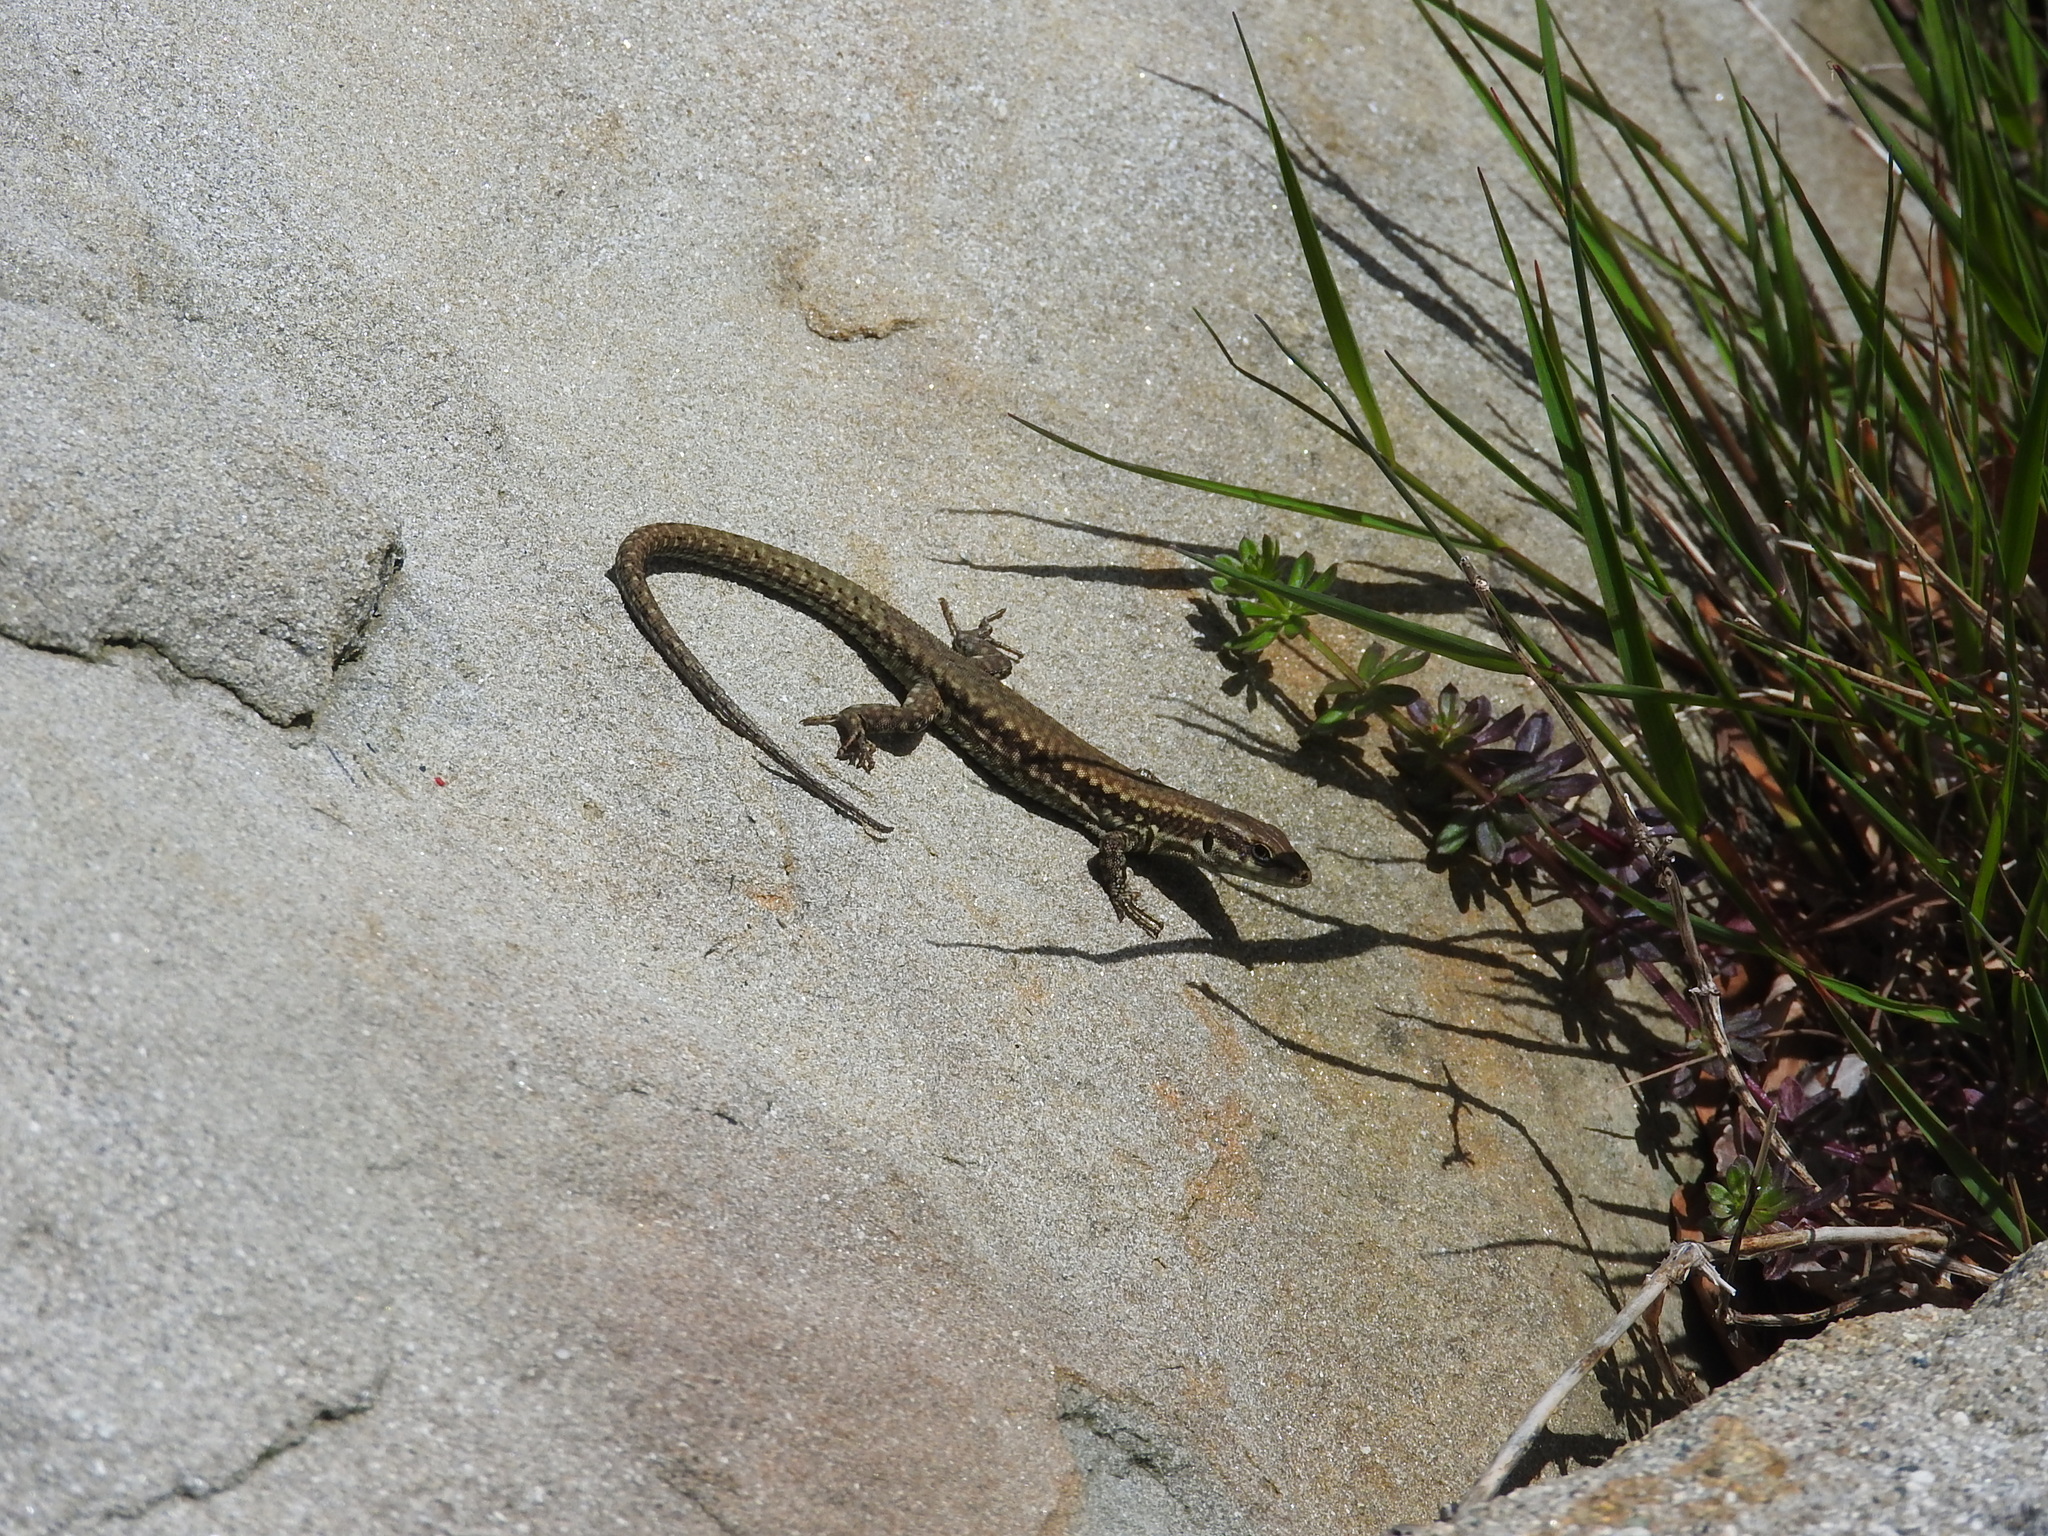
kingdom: Animalia
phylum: Chordata
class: Squamata
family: Lacertidae
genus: Podarcis
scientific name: Podarcis muralis
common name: Common wall lizard
